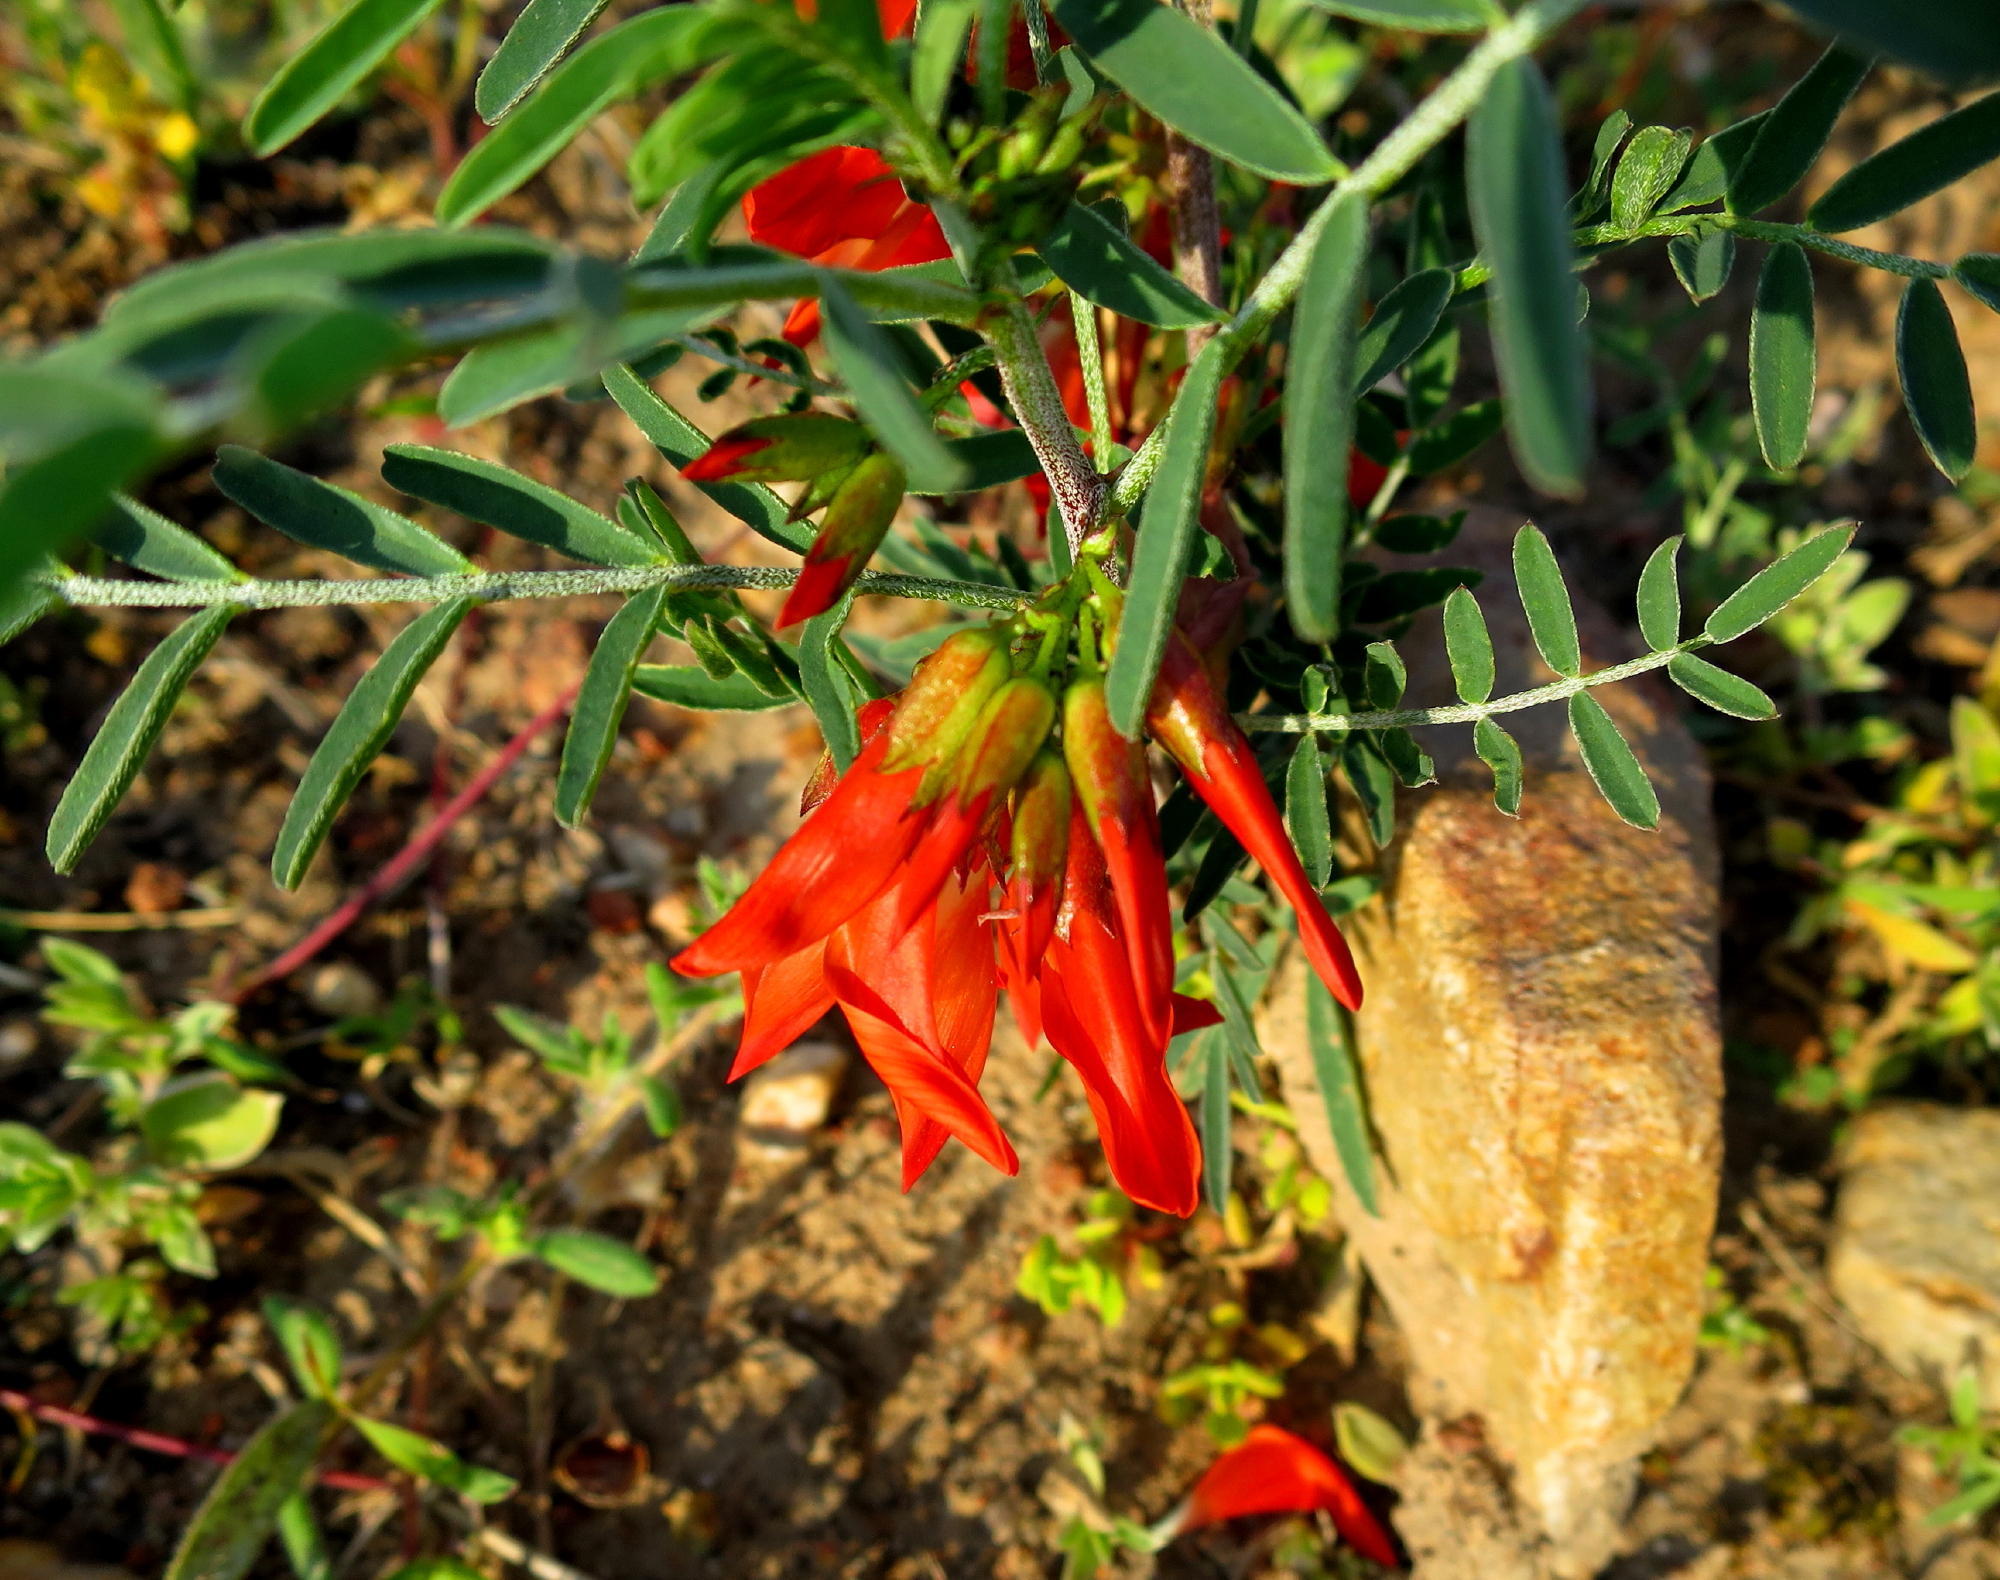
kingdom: Plantae
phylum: Tracheophyta
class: Magnoliopsida
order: Fabales
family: Fabaceae
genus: Lessertia
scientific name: Lessertia frutescens
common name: Balloon-pea
